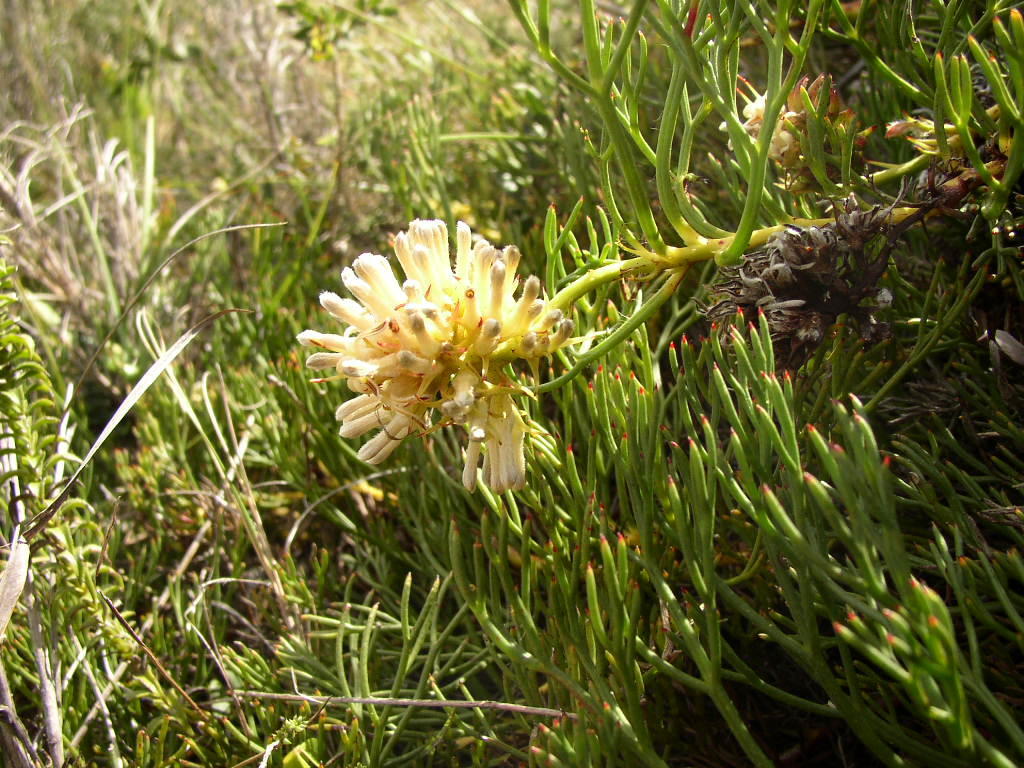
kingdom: Plantae
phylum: Tracheophyta
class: Magnoliopsida
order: Proteales
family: Proteaceae
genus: Serruria
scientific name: Serruria collina
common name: Lost spiderhead
